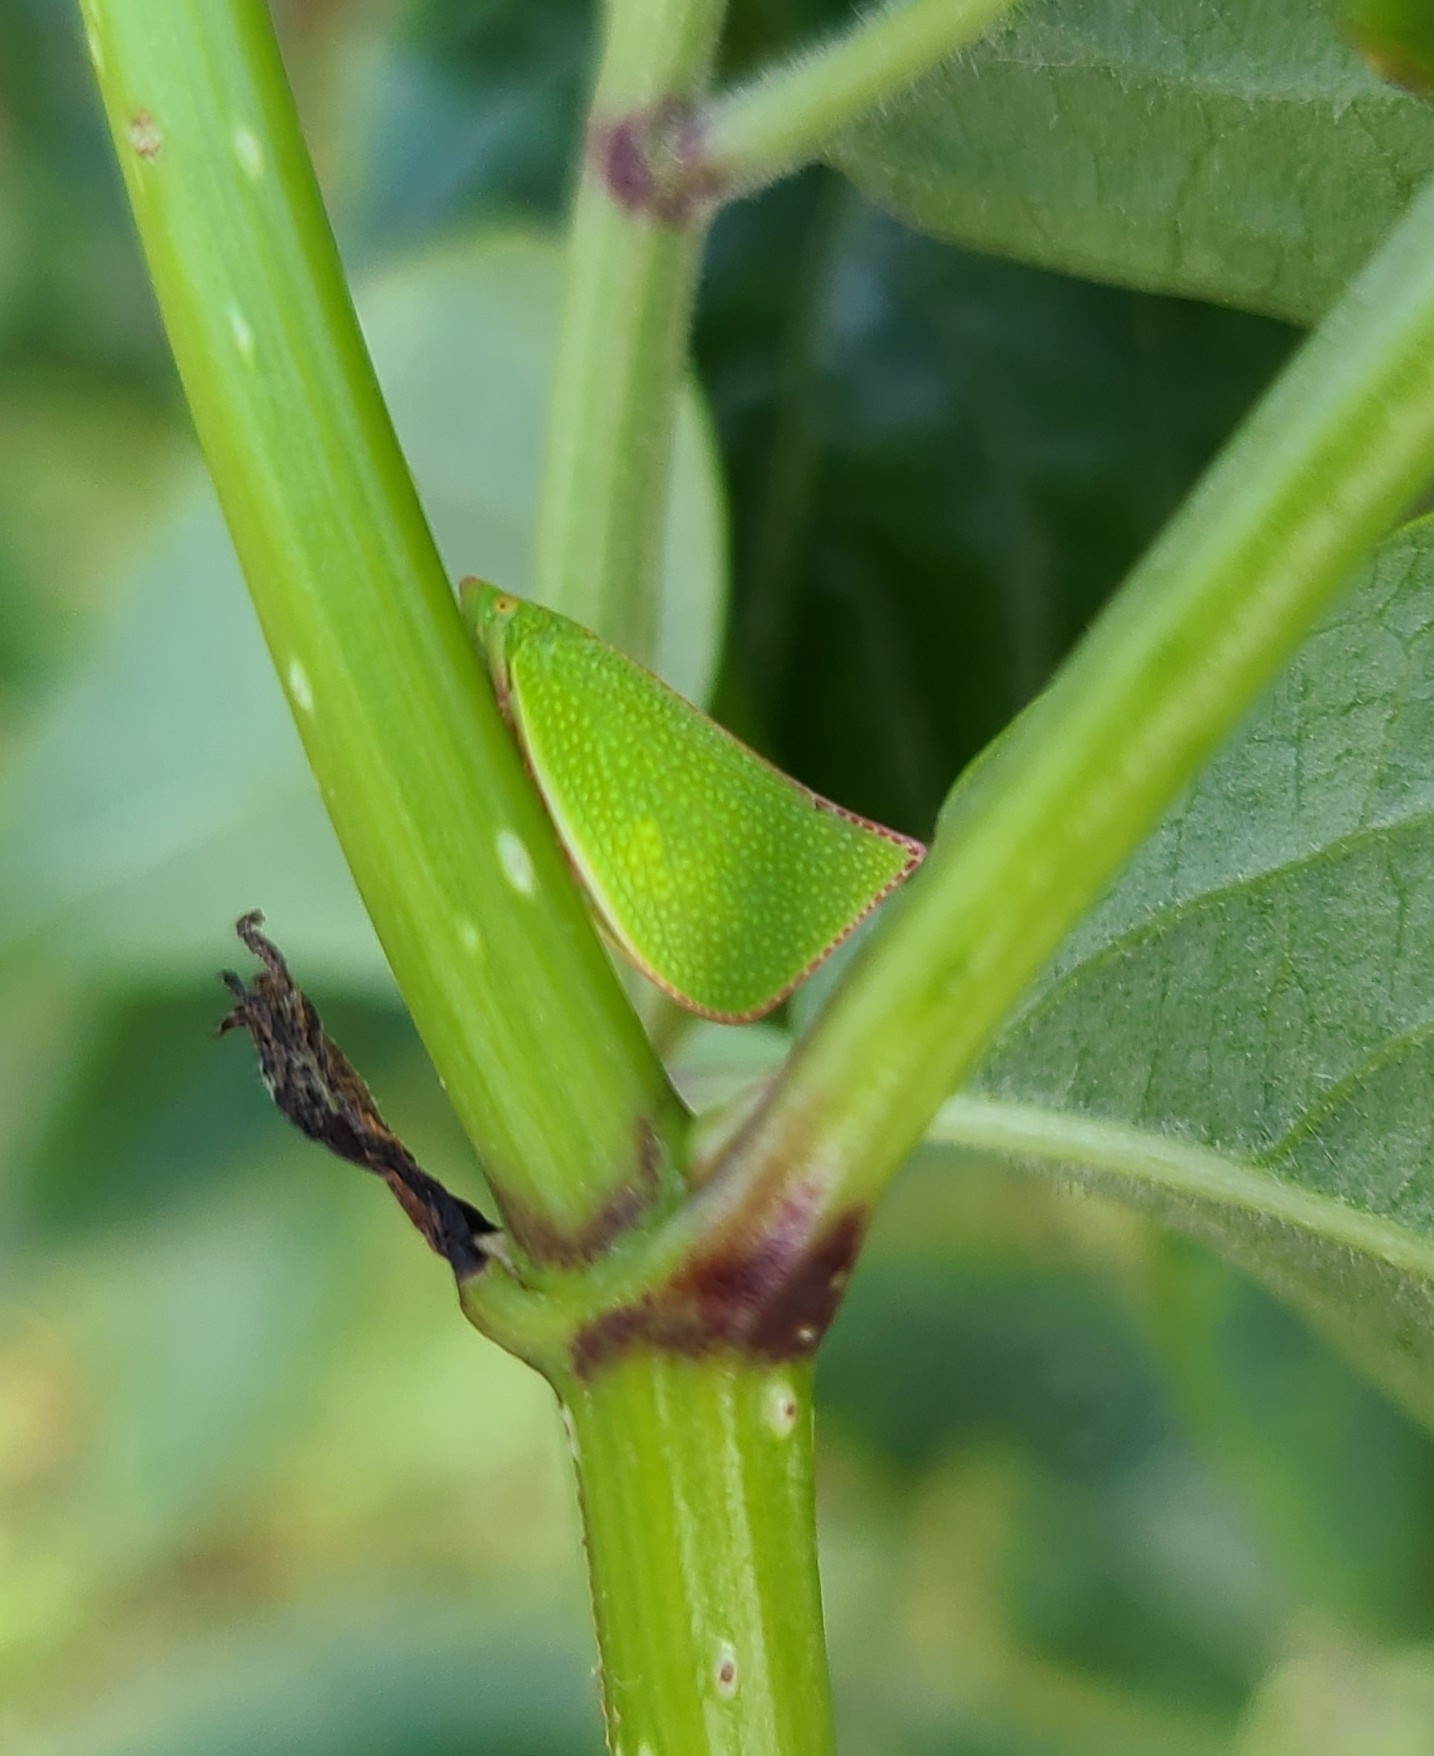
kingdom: Animalia
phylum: Arthropoda
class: Insecta
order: Hemiptera
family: Flatidae
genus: Siphanta
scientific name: Siphanta acuta
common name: Torpedo bug
